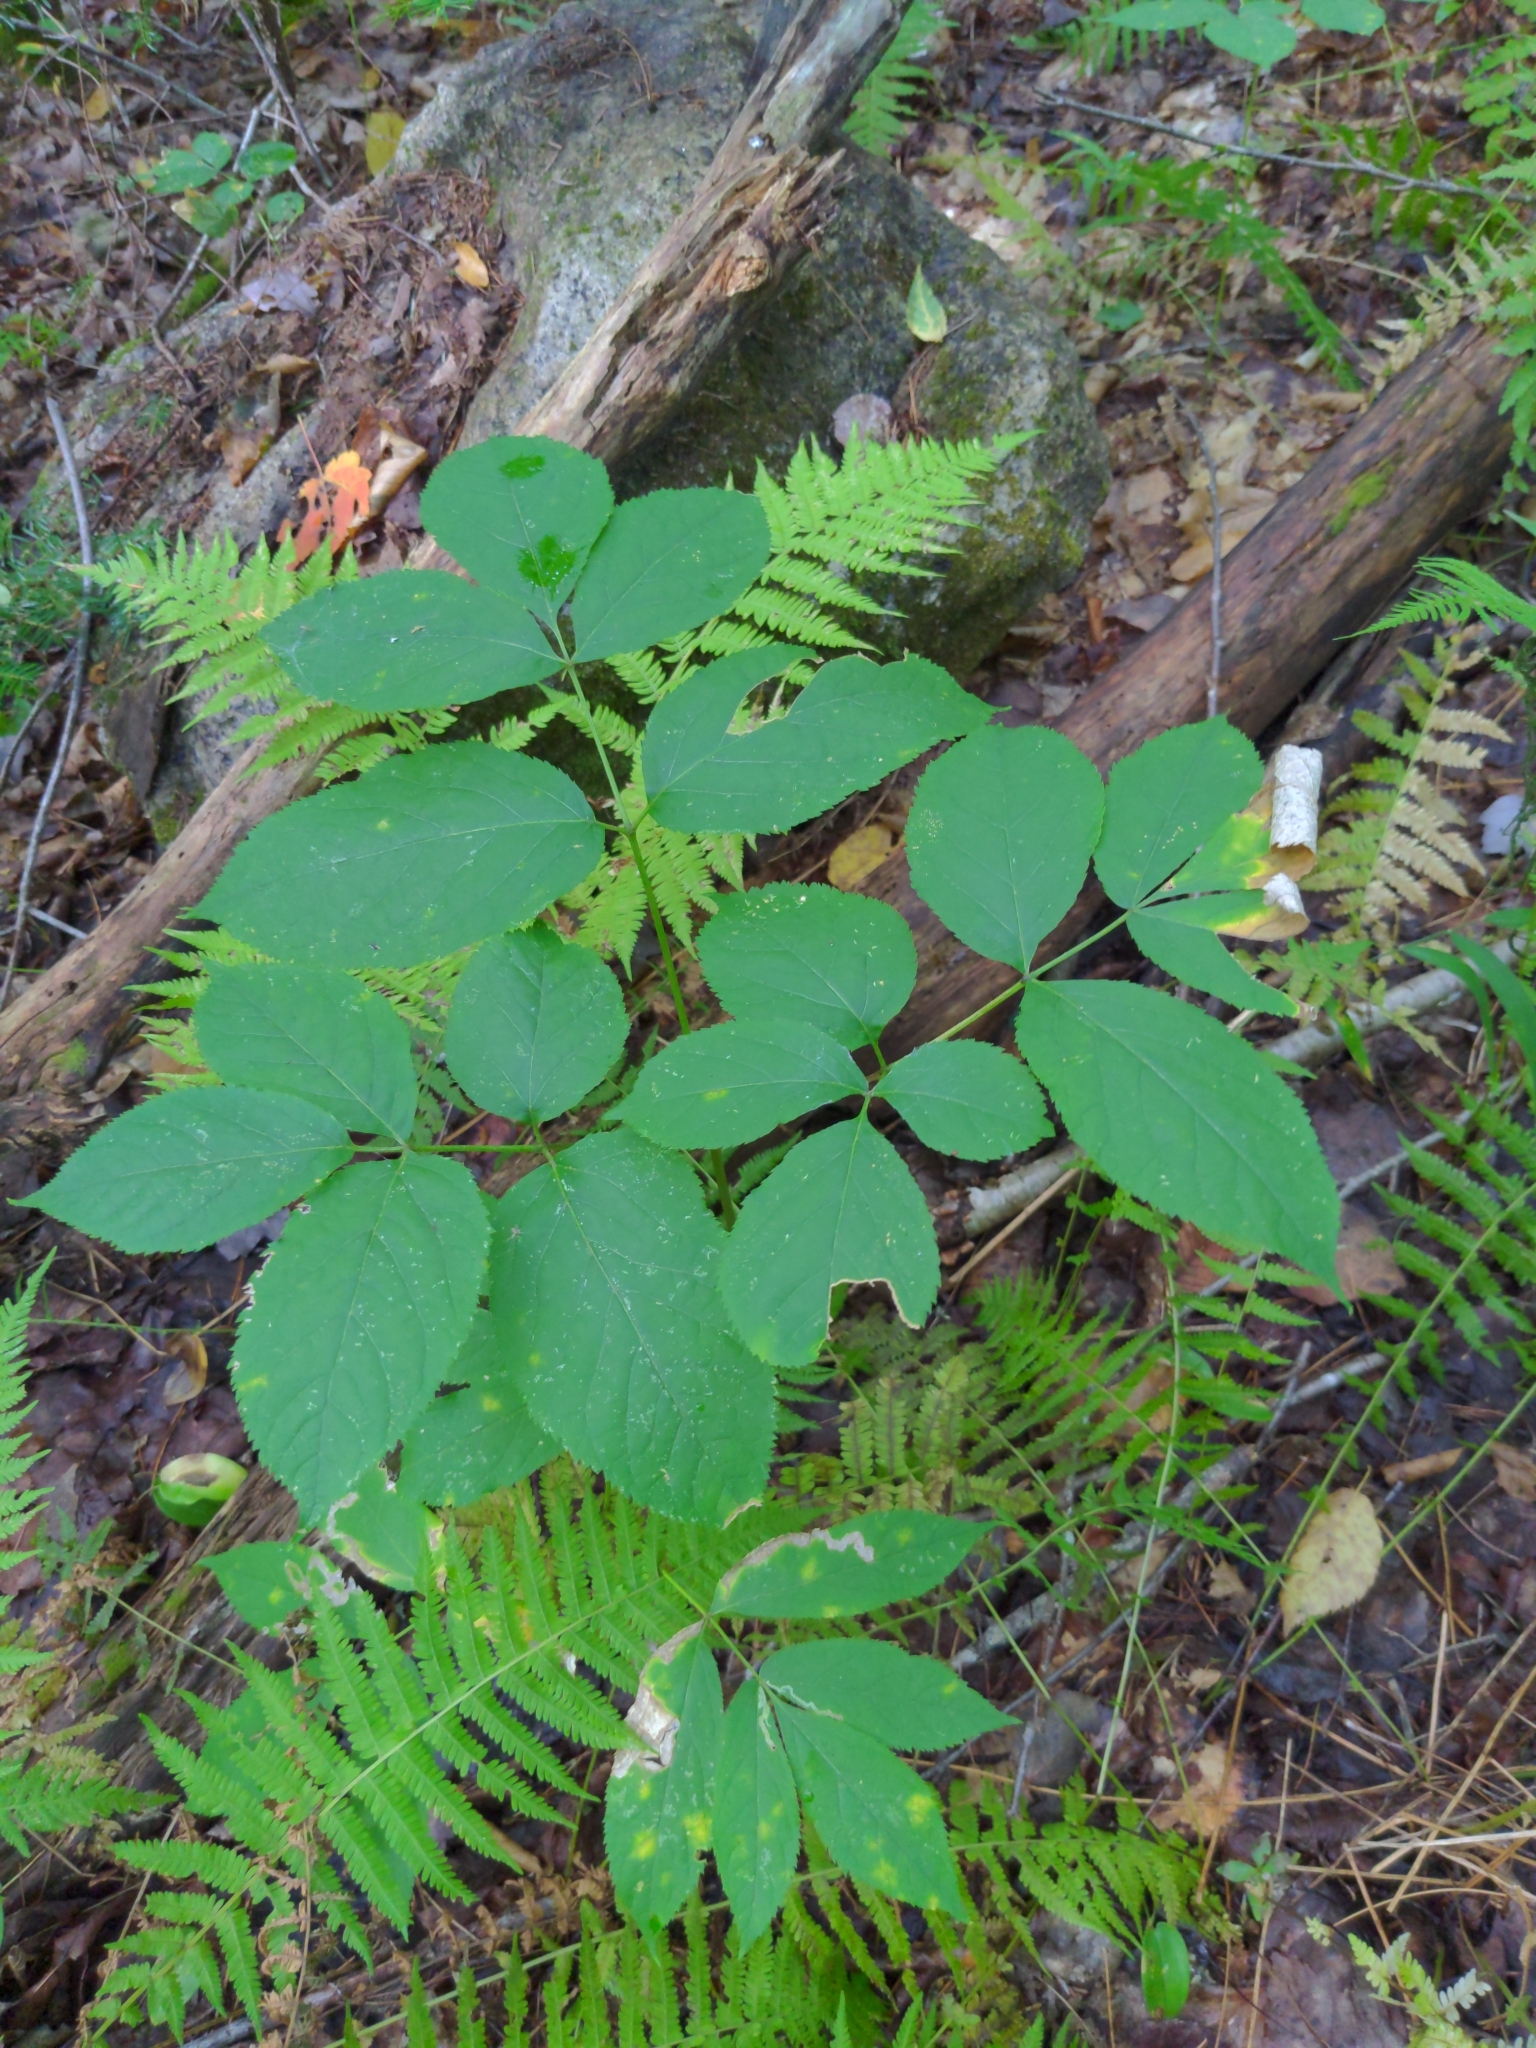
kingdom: Plantae
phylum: Tracheophyta
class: Magnoliopsida
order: Apiales
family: Araliaceae
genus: Aralia
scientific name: Aralia nudicaulis
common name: Wild sarsaparilla
